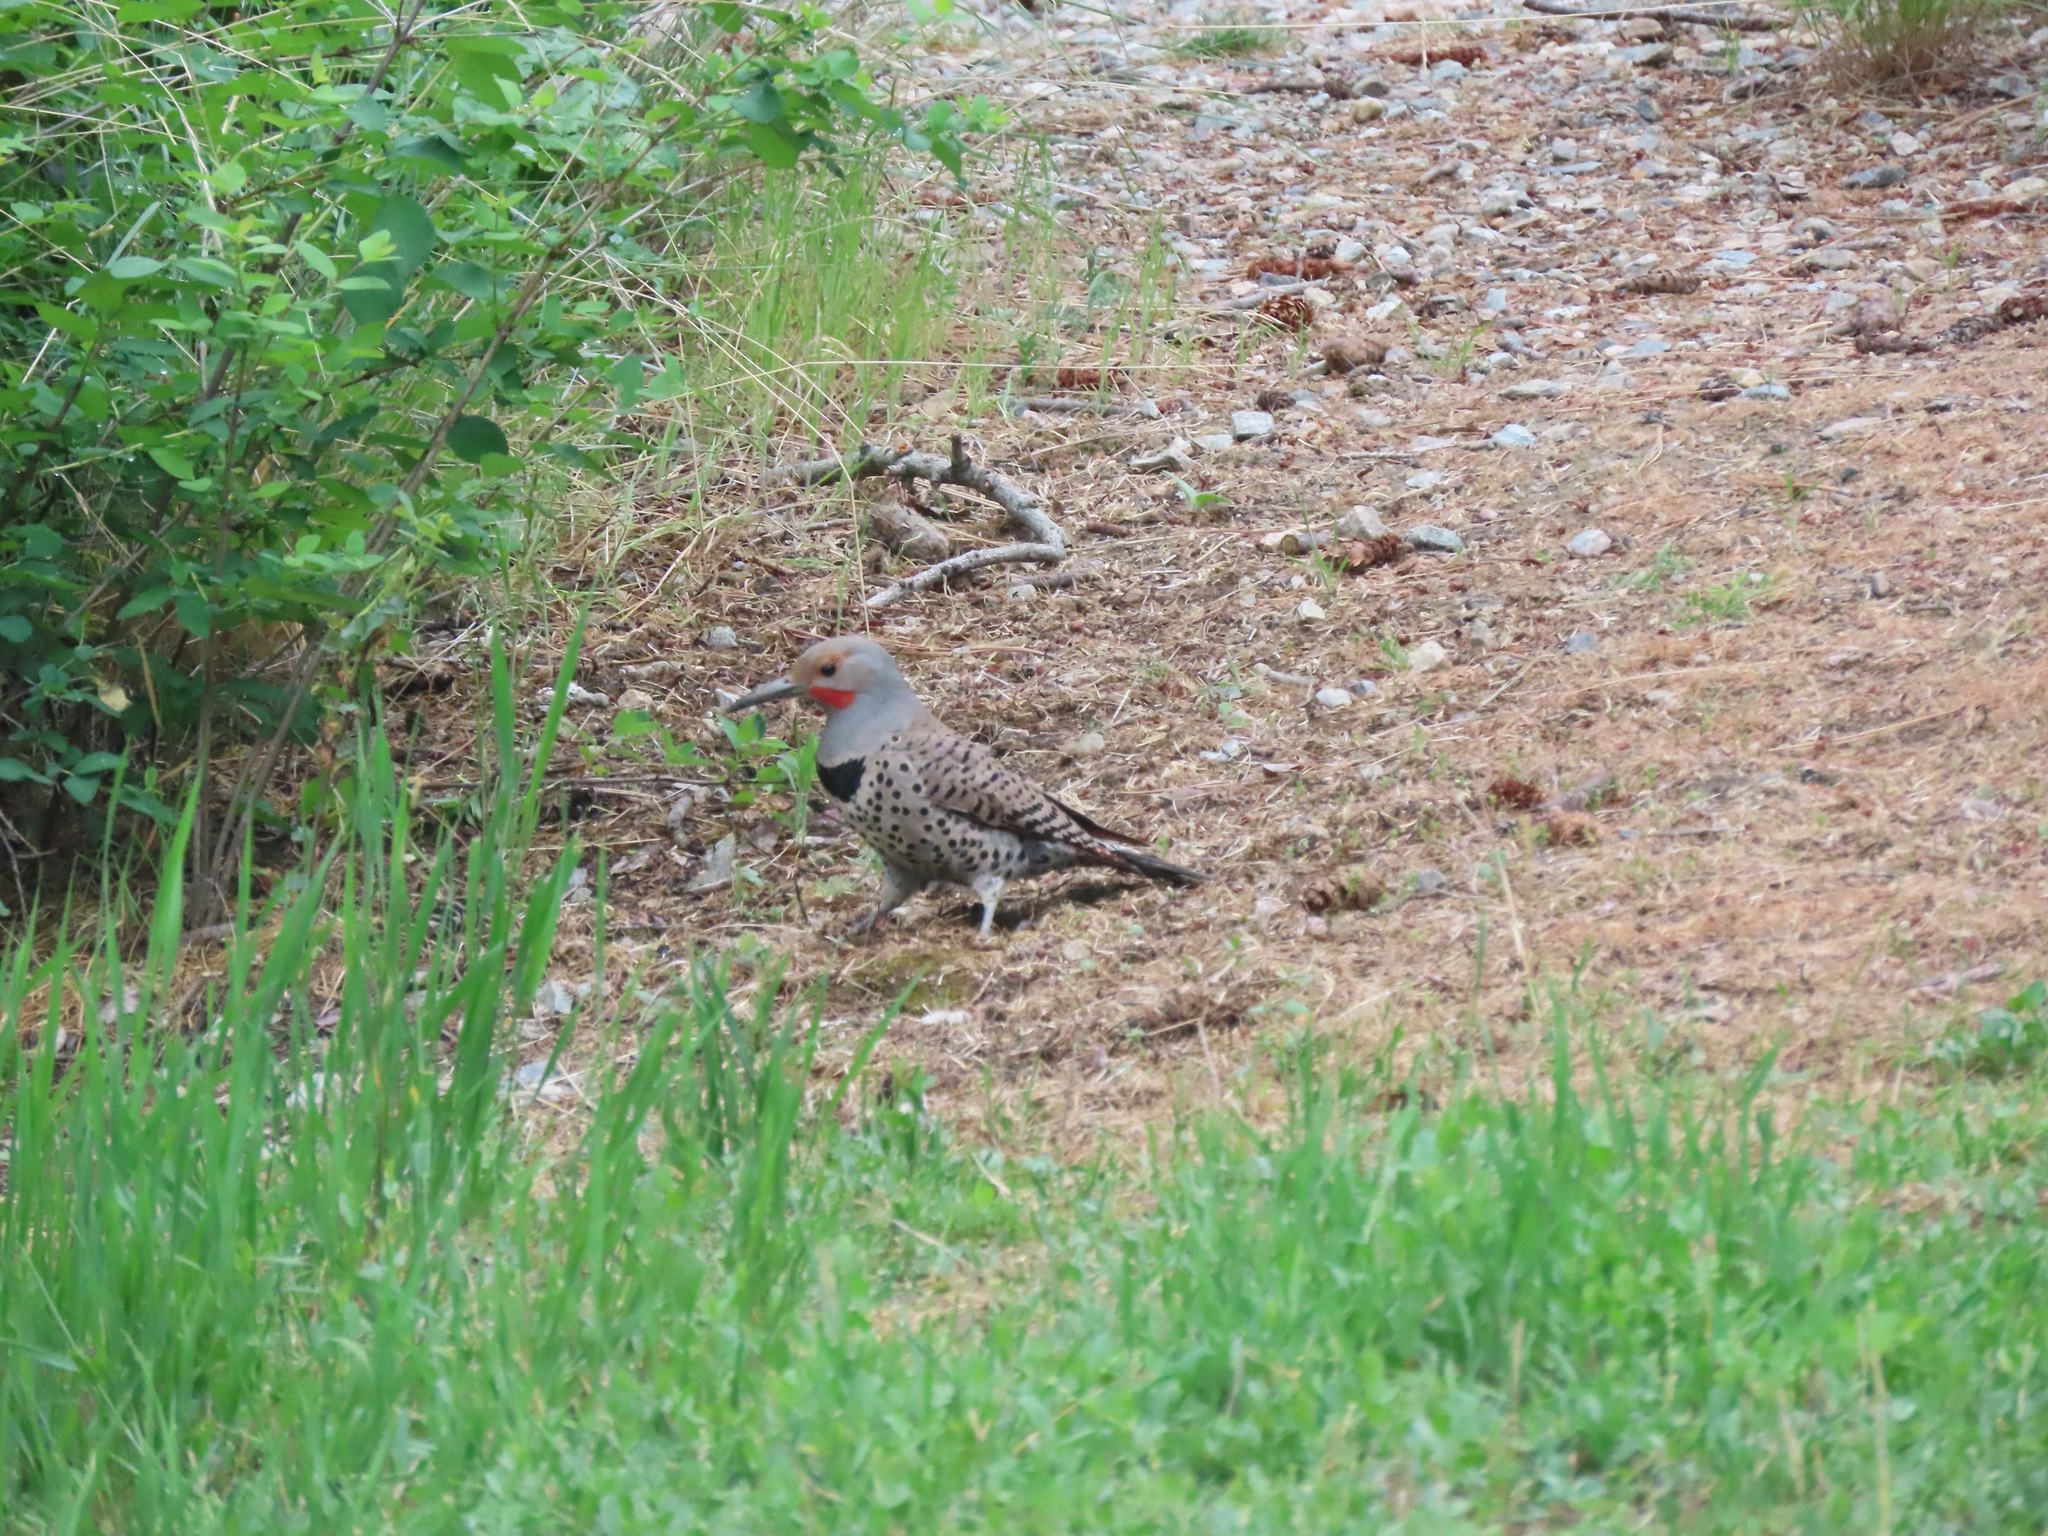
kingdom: Animalia
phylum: Chordata
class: Aves
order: Piciformes
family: Picidae
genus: Colaptes
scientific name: Colaptes auratus
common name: Northern flicker
